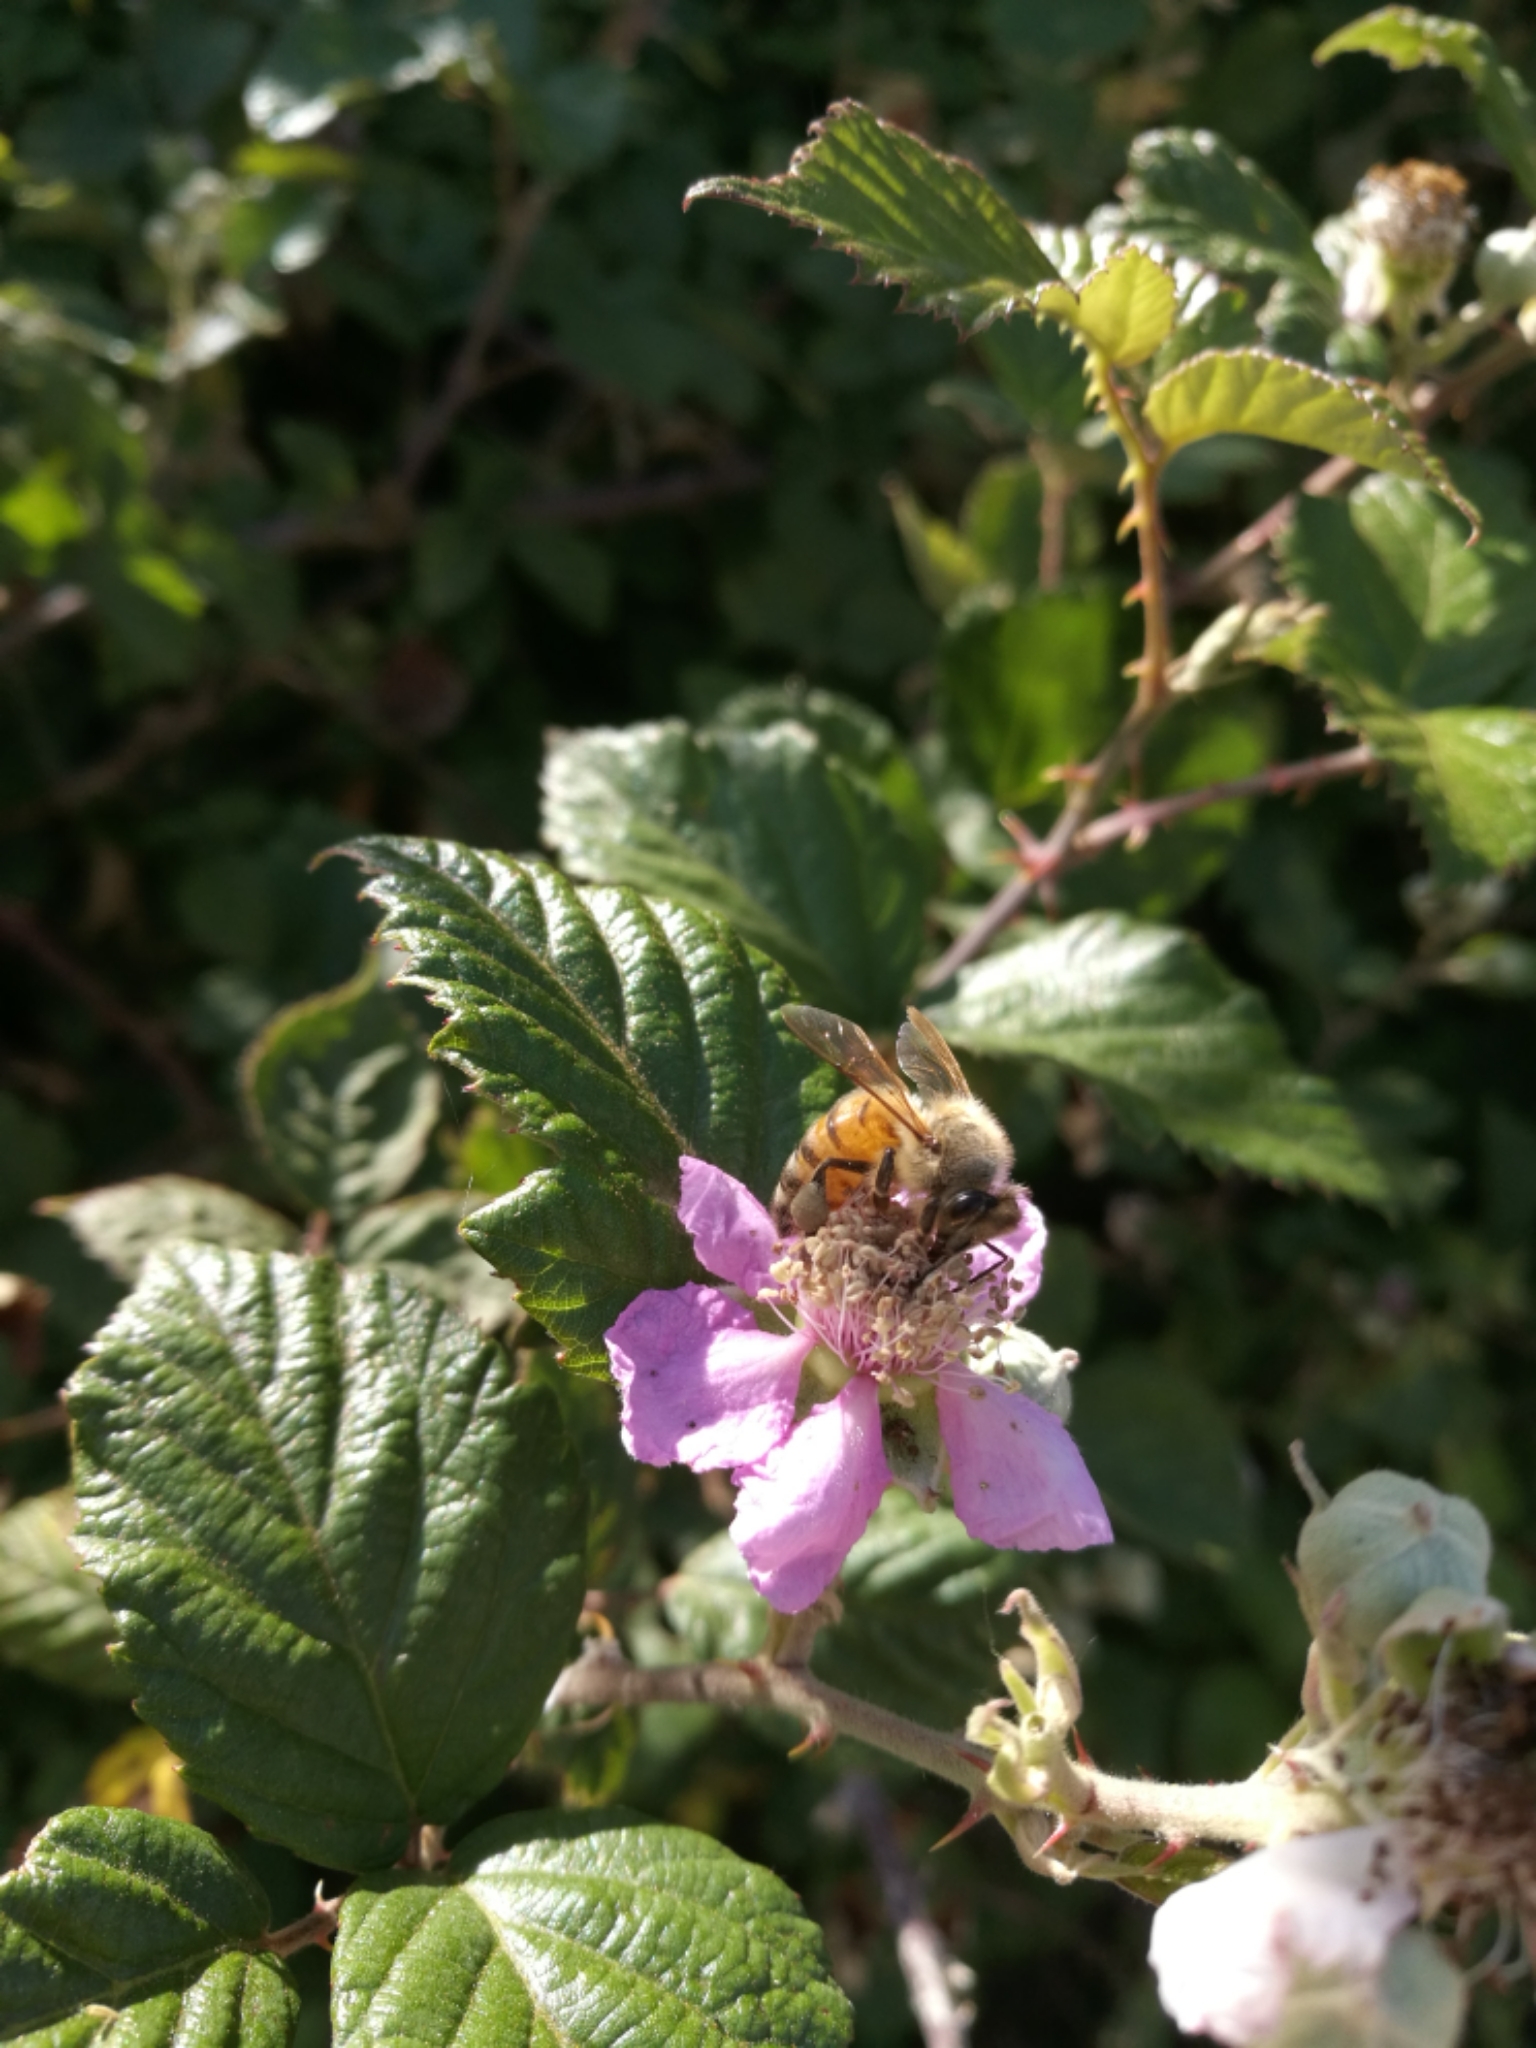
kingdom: Animalia
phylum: Arthropoda
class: Insecta
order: Hymenoptera
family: Apidae
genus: Apis
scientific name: Apis mellifera
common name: Honey bee
